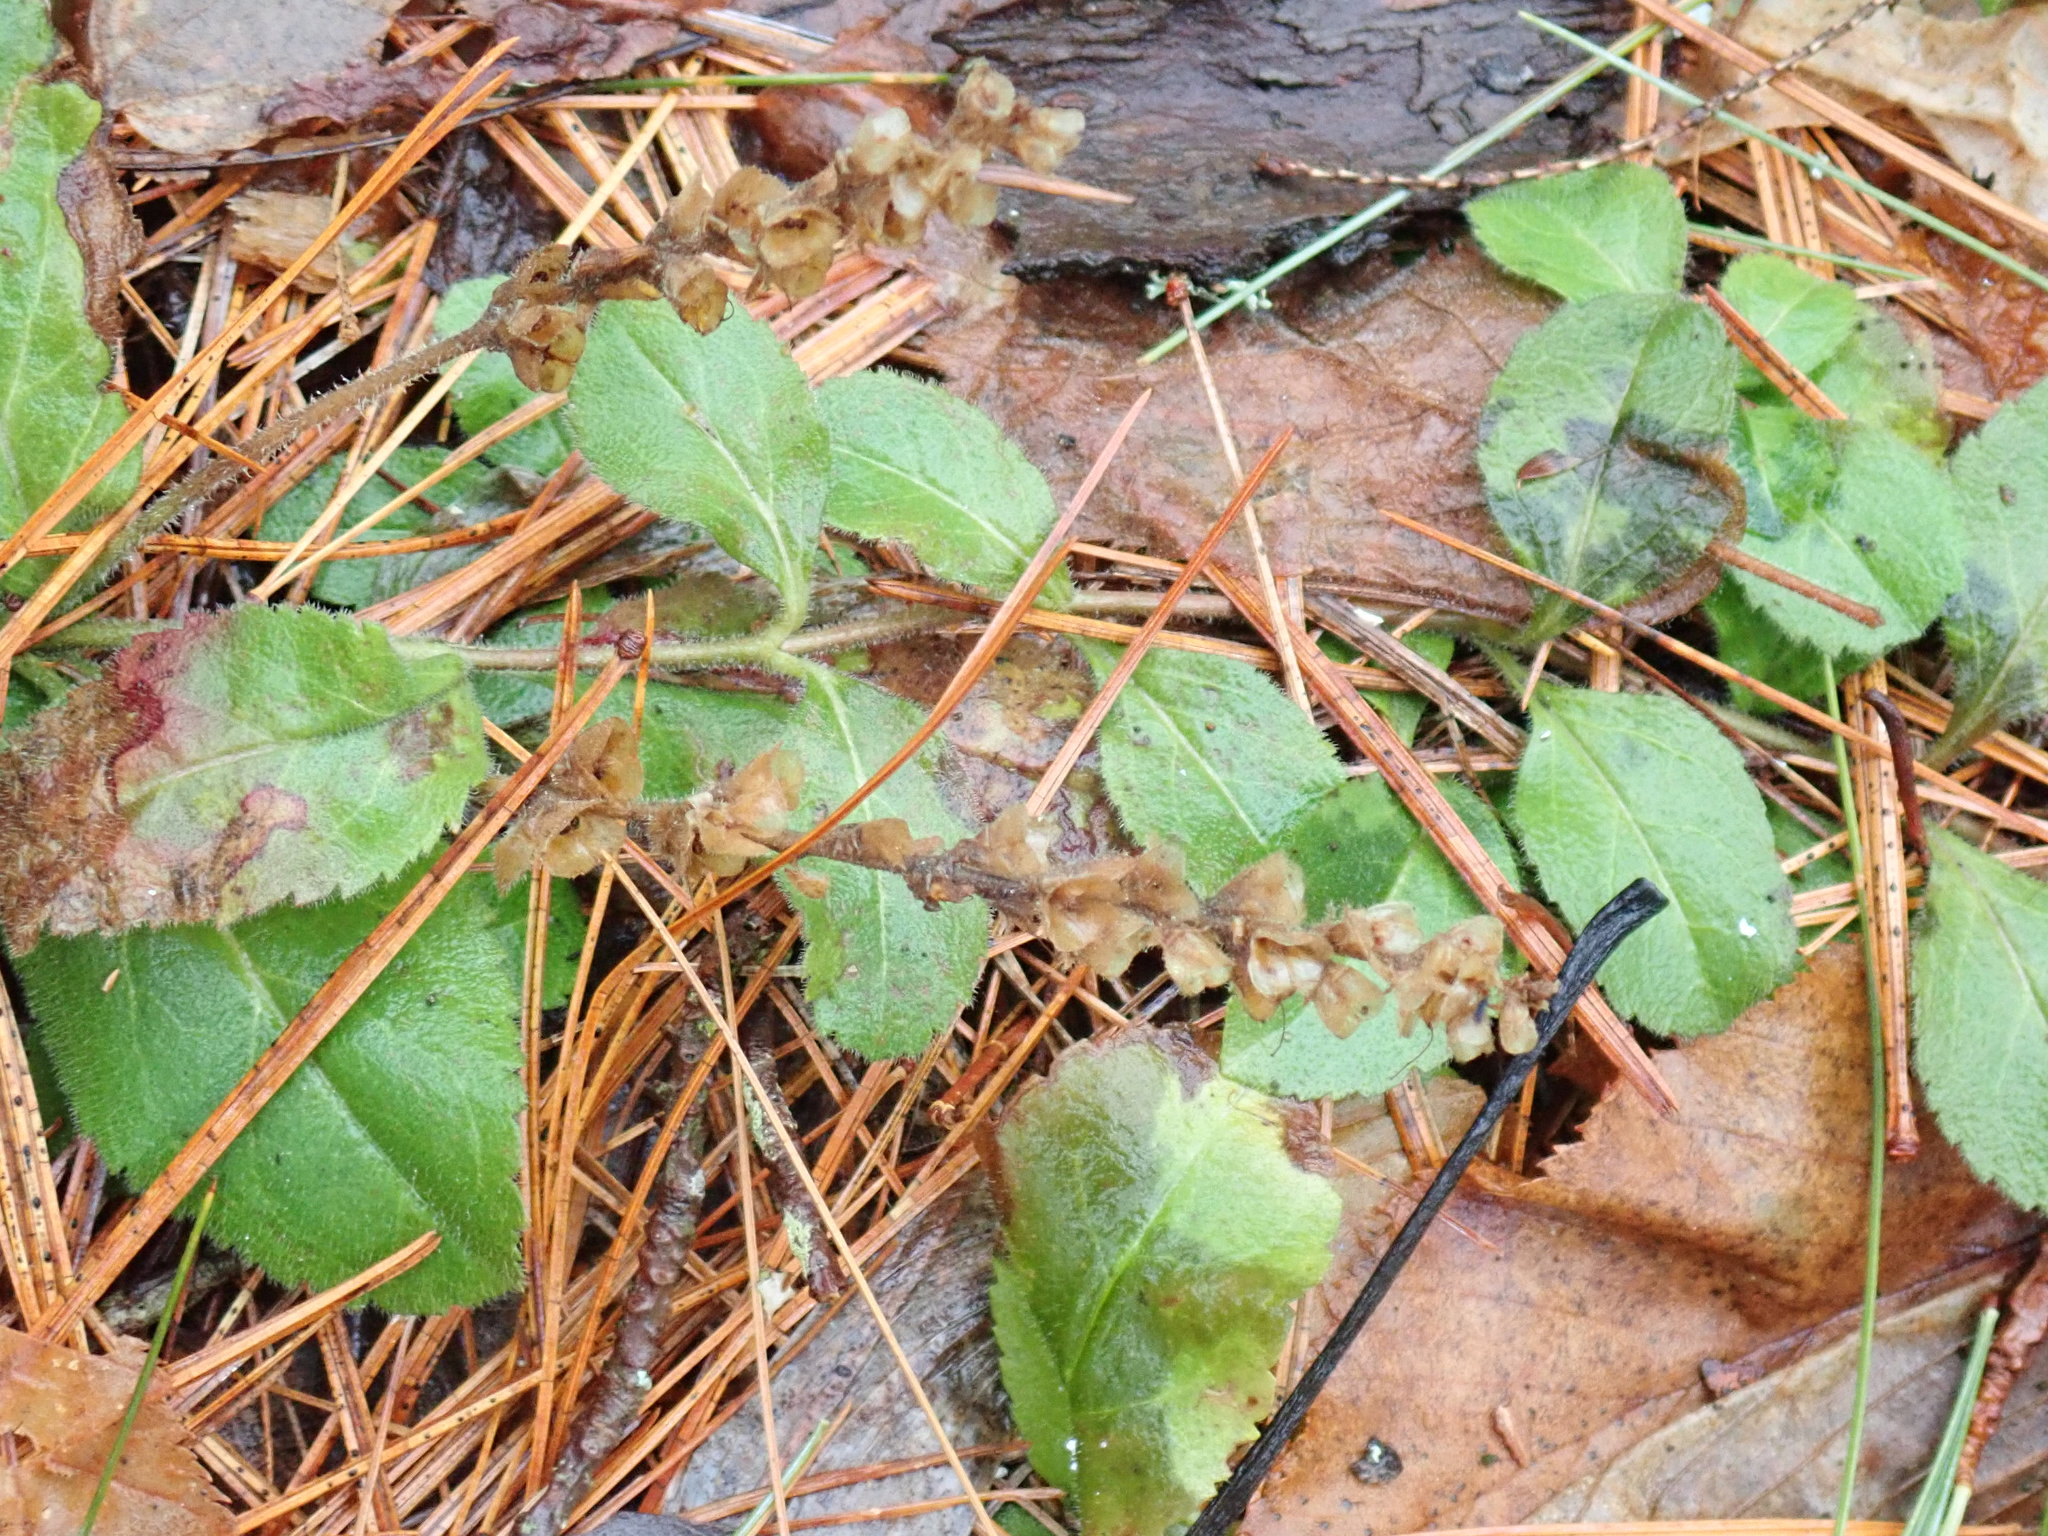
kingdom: Plantae
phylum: Tracheophyta
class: Magnoliopsida
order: Lamiales
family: Plantaginaceae
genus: Veronica
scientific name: Veronica officinalis
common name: Common speedwell
